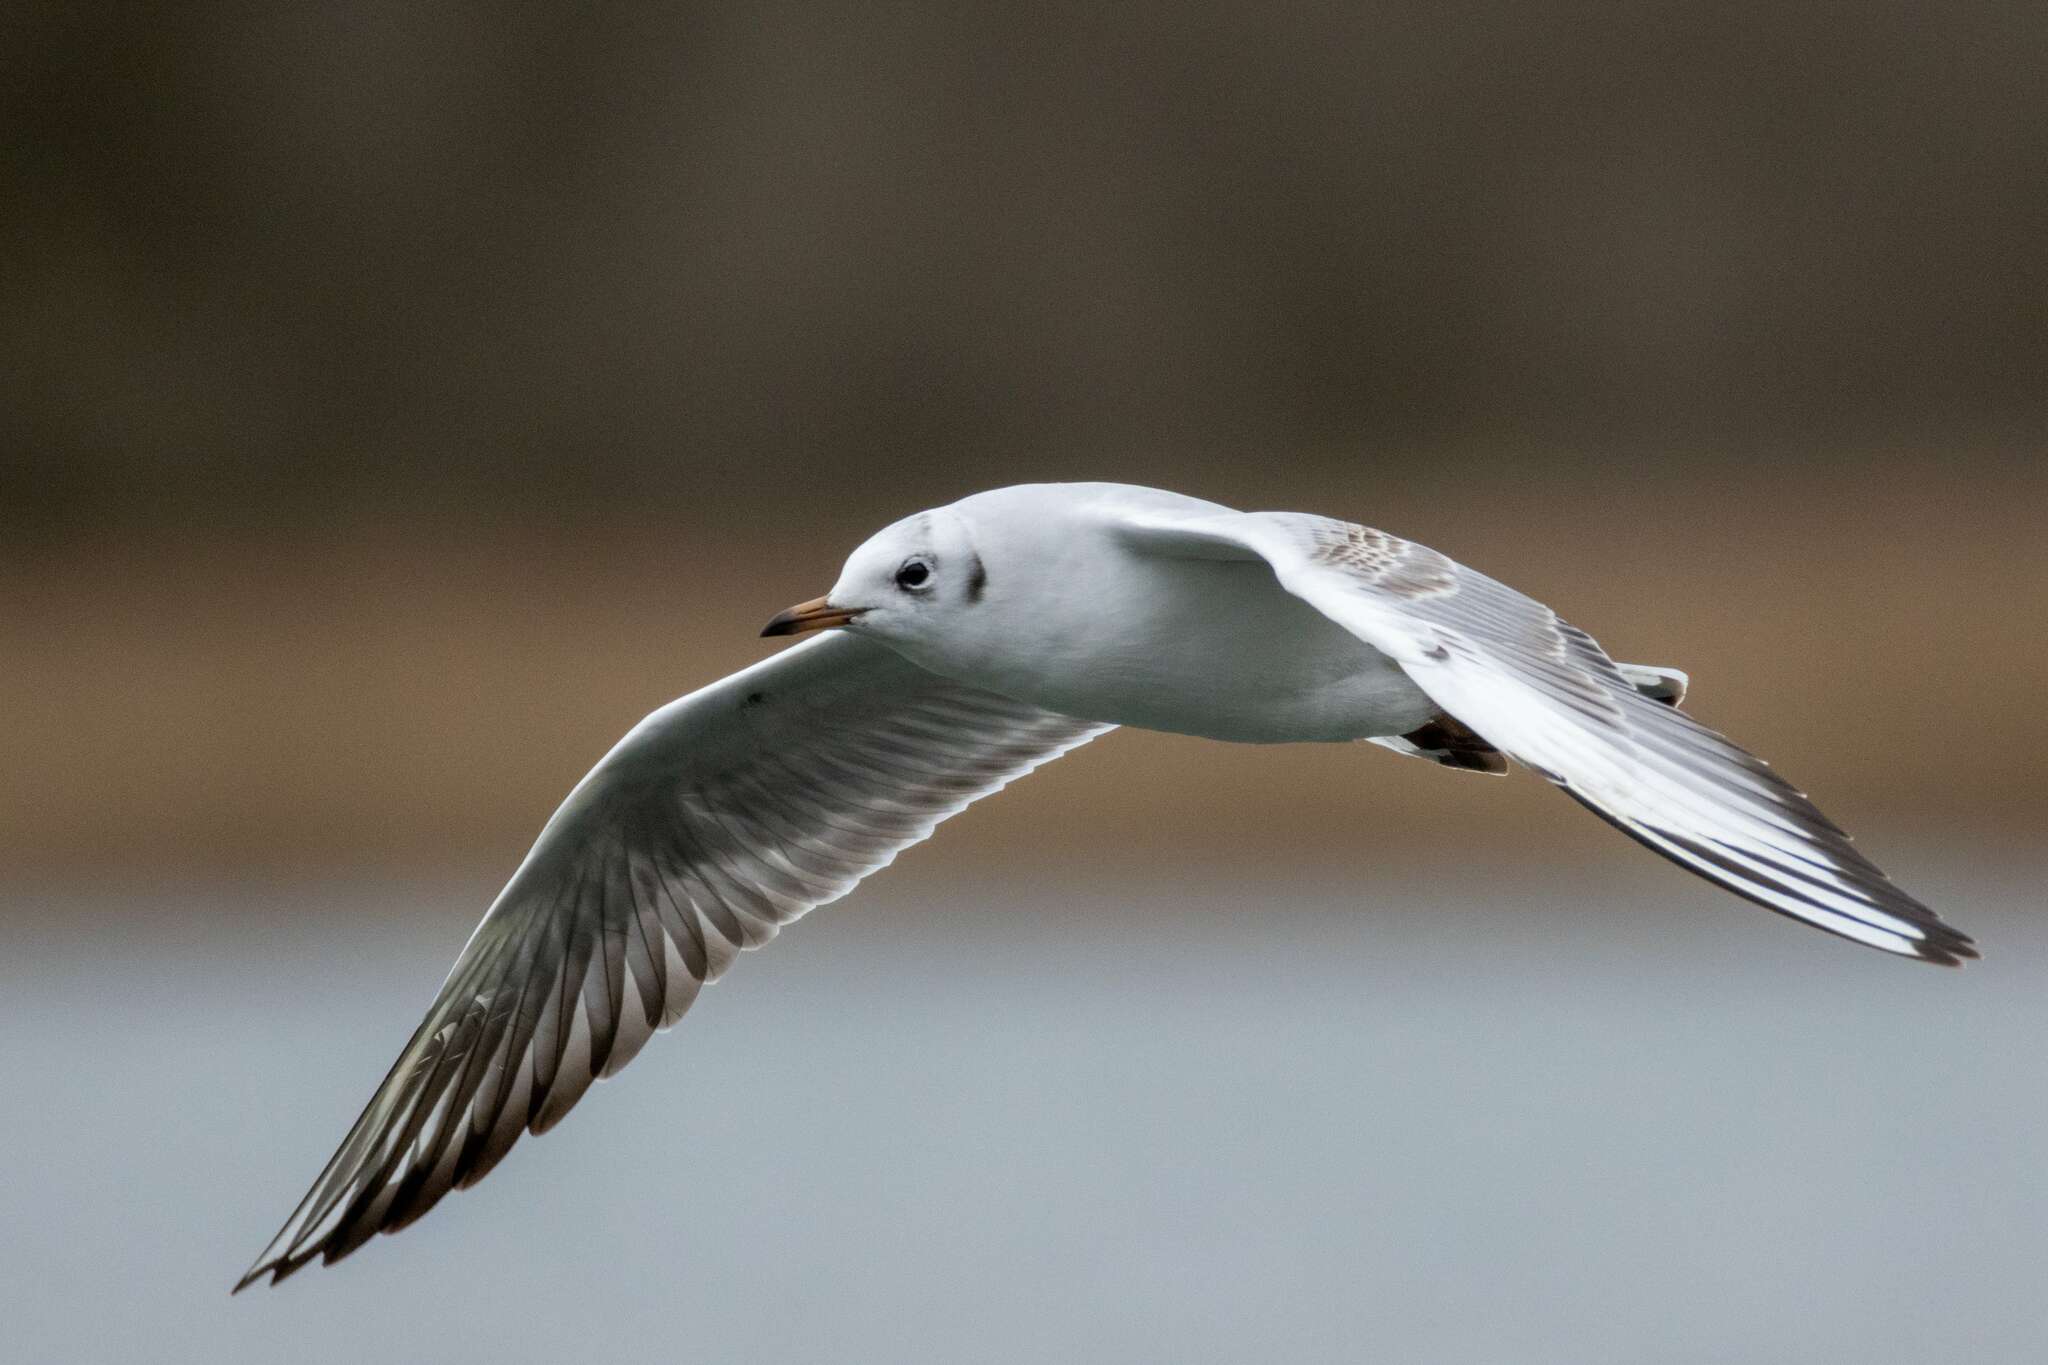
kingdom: Animalia
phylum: Chordata
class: Aves
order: Charadriiformes
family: Laridae
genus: Chroicocephalus
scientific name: Chroicocephalus ridibundus
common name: Black-headed gull
